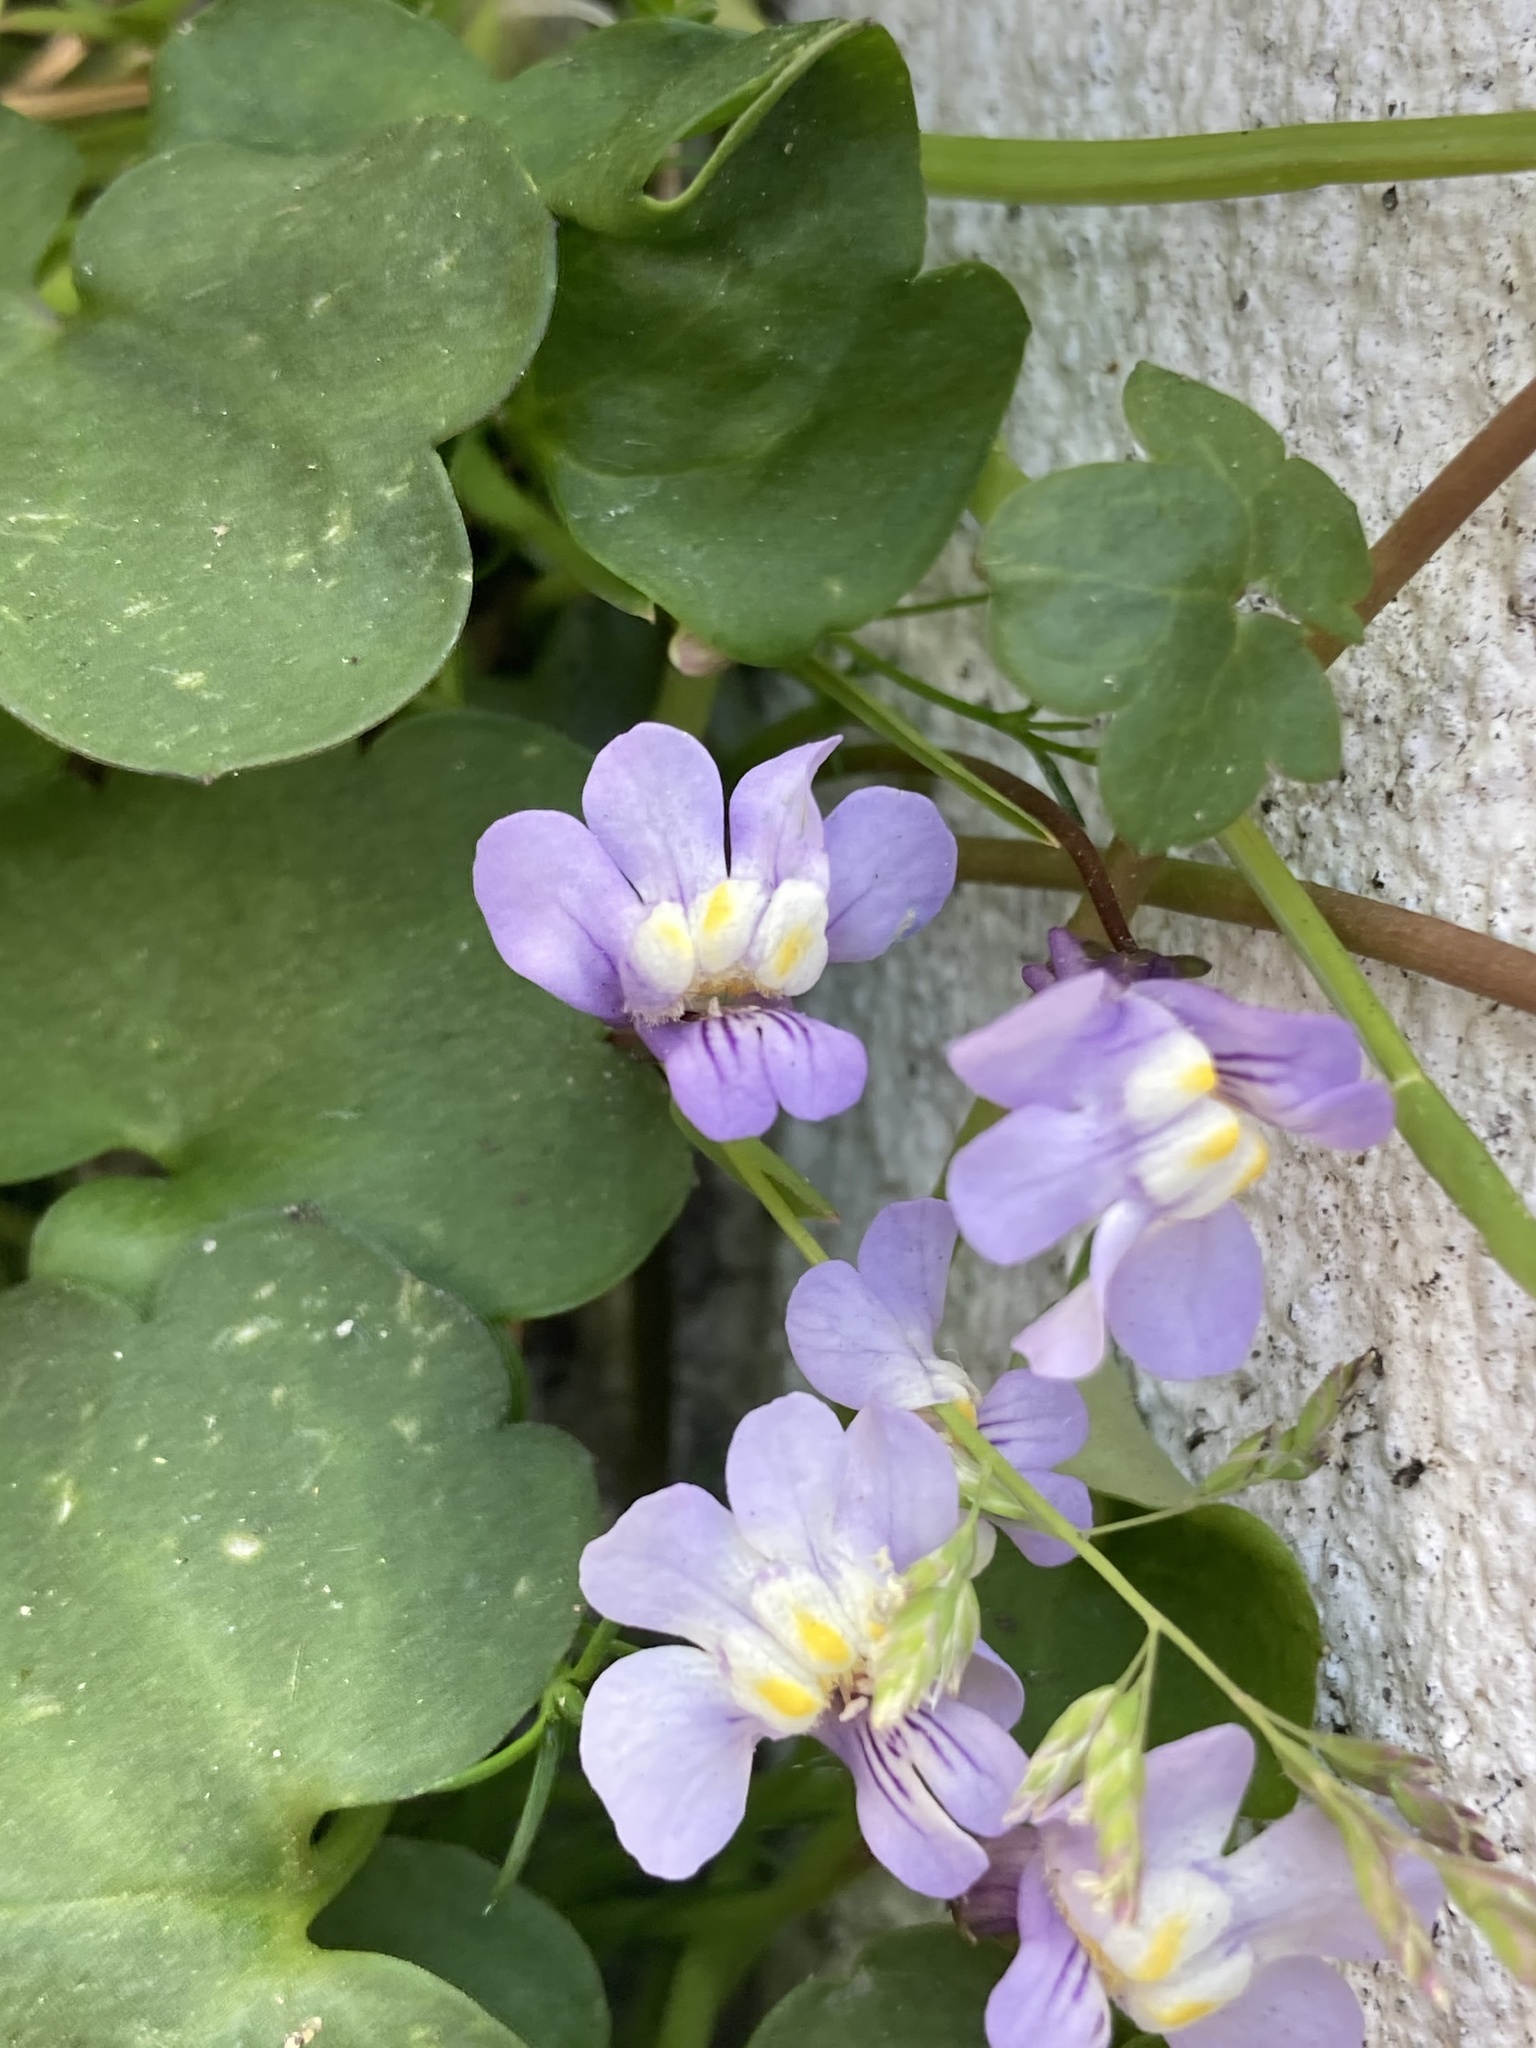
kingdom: Plantae
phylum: Tracheophyta
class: Magnoliopsida
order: Lamiales
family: Plantaginaceae
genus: Cymbalaria
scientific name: Cymbalaria muralis
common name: Ivy-leaved toadflax
